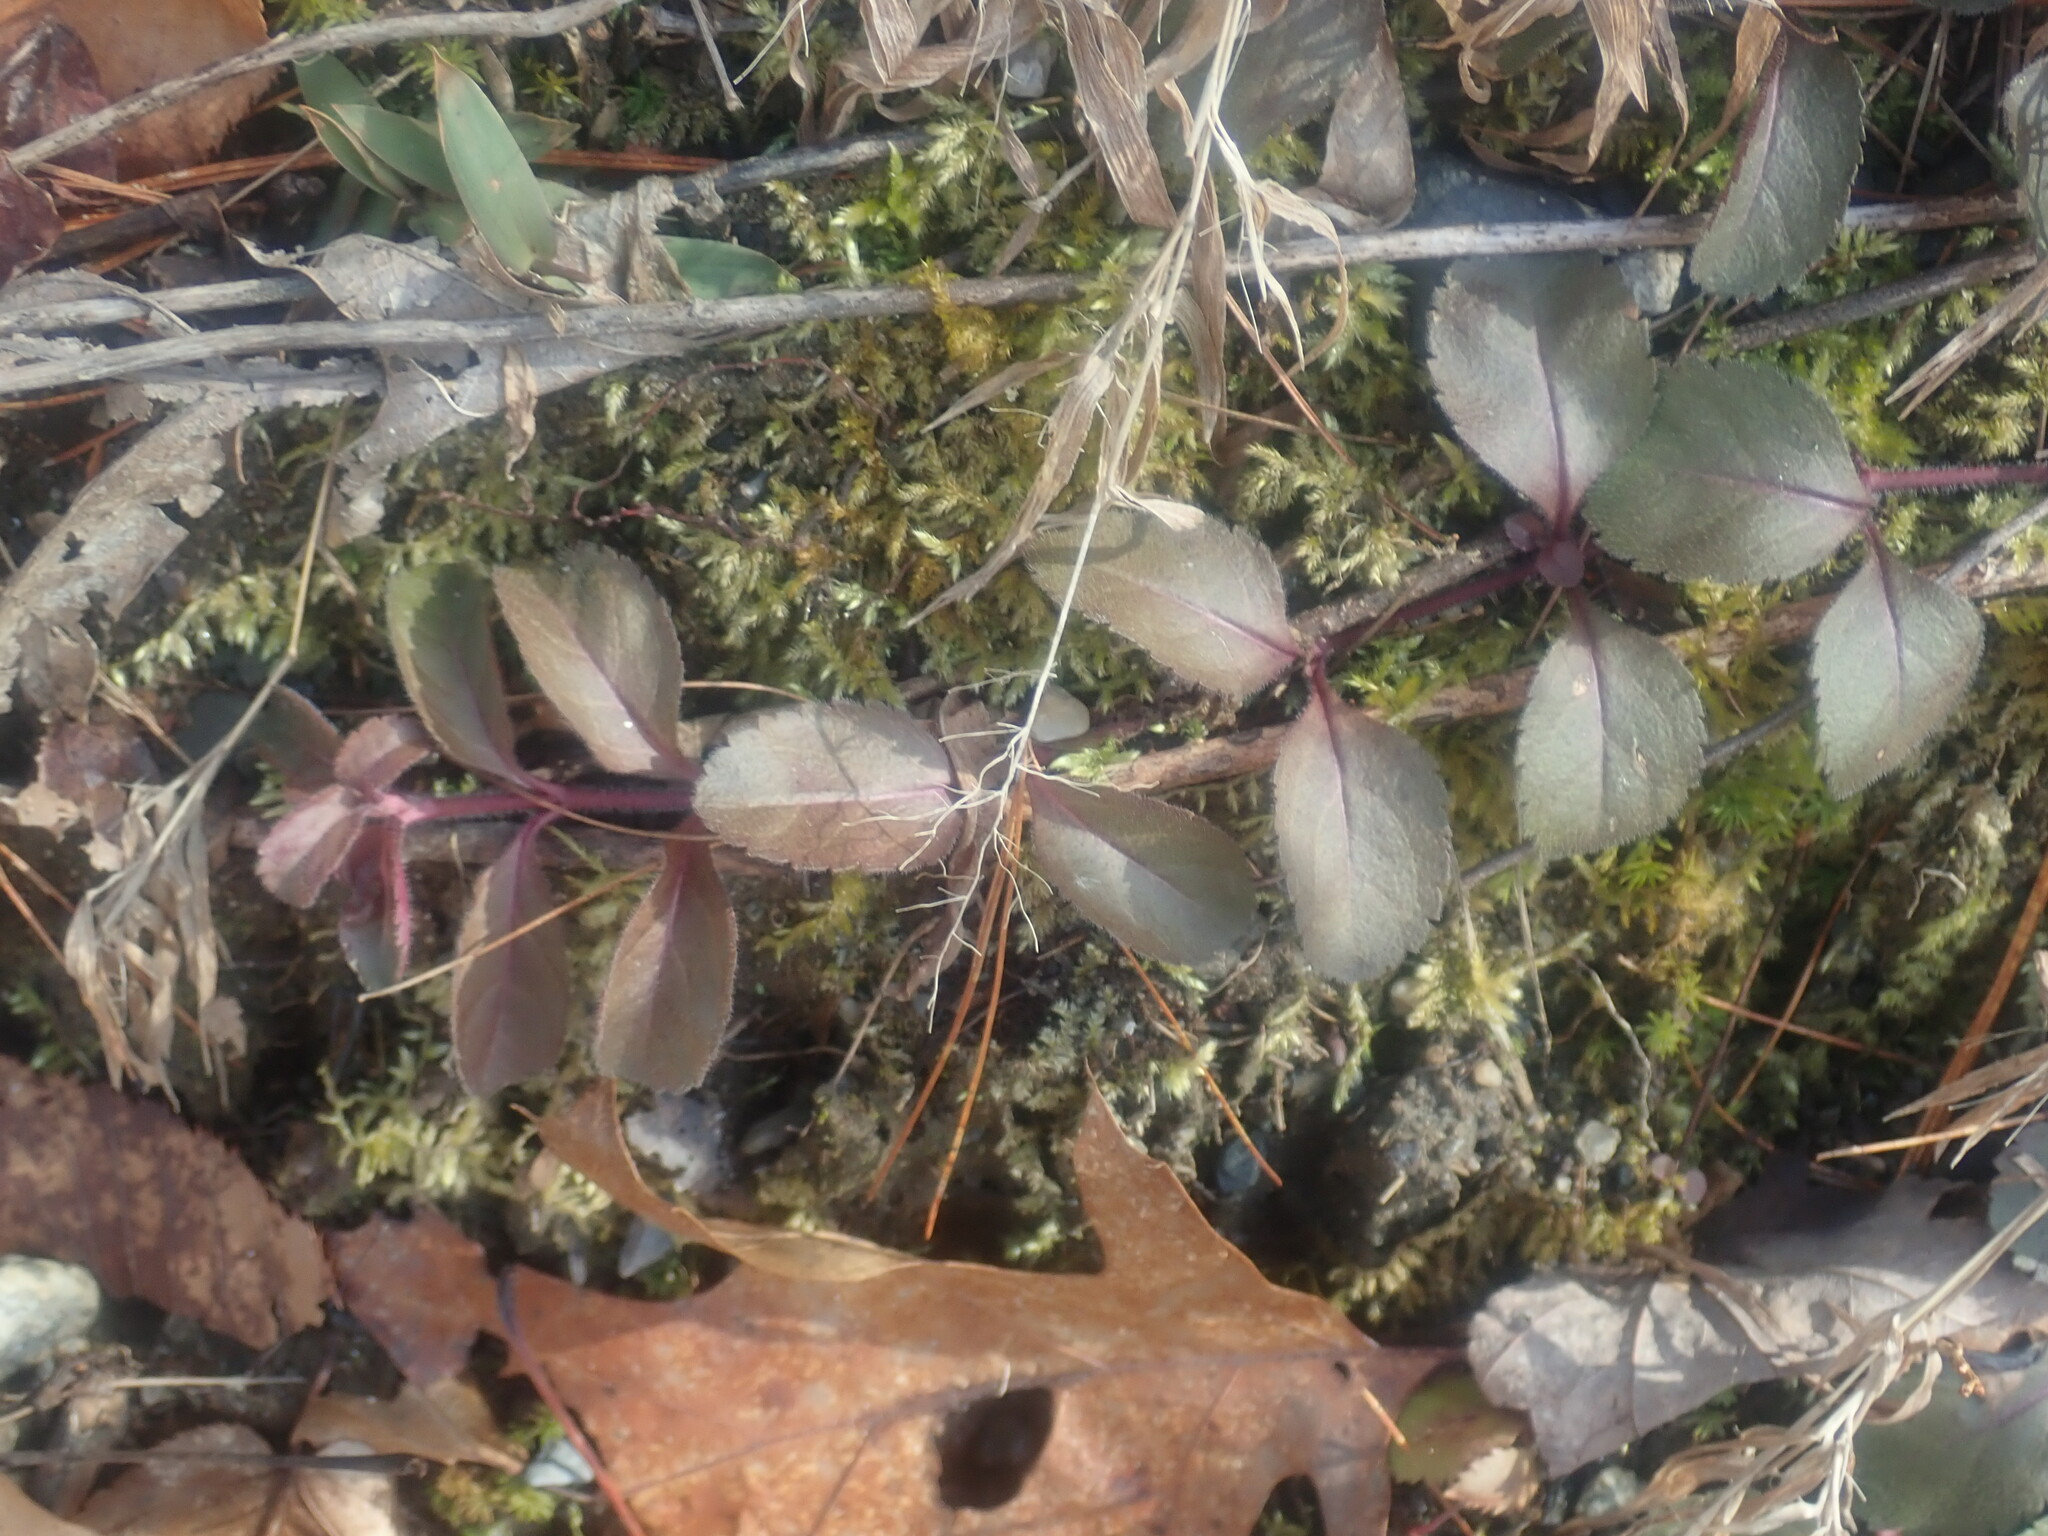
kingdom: Plantae
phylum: Tracheophyta
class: Magnoliopsida
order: Lamiales
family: Plantaginaceae
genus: Veronica
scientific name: Veronica officinalis
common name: Common speedwell
